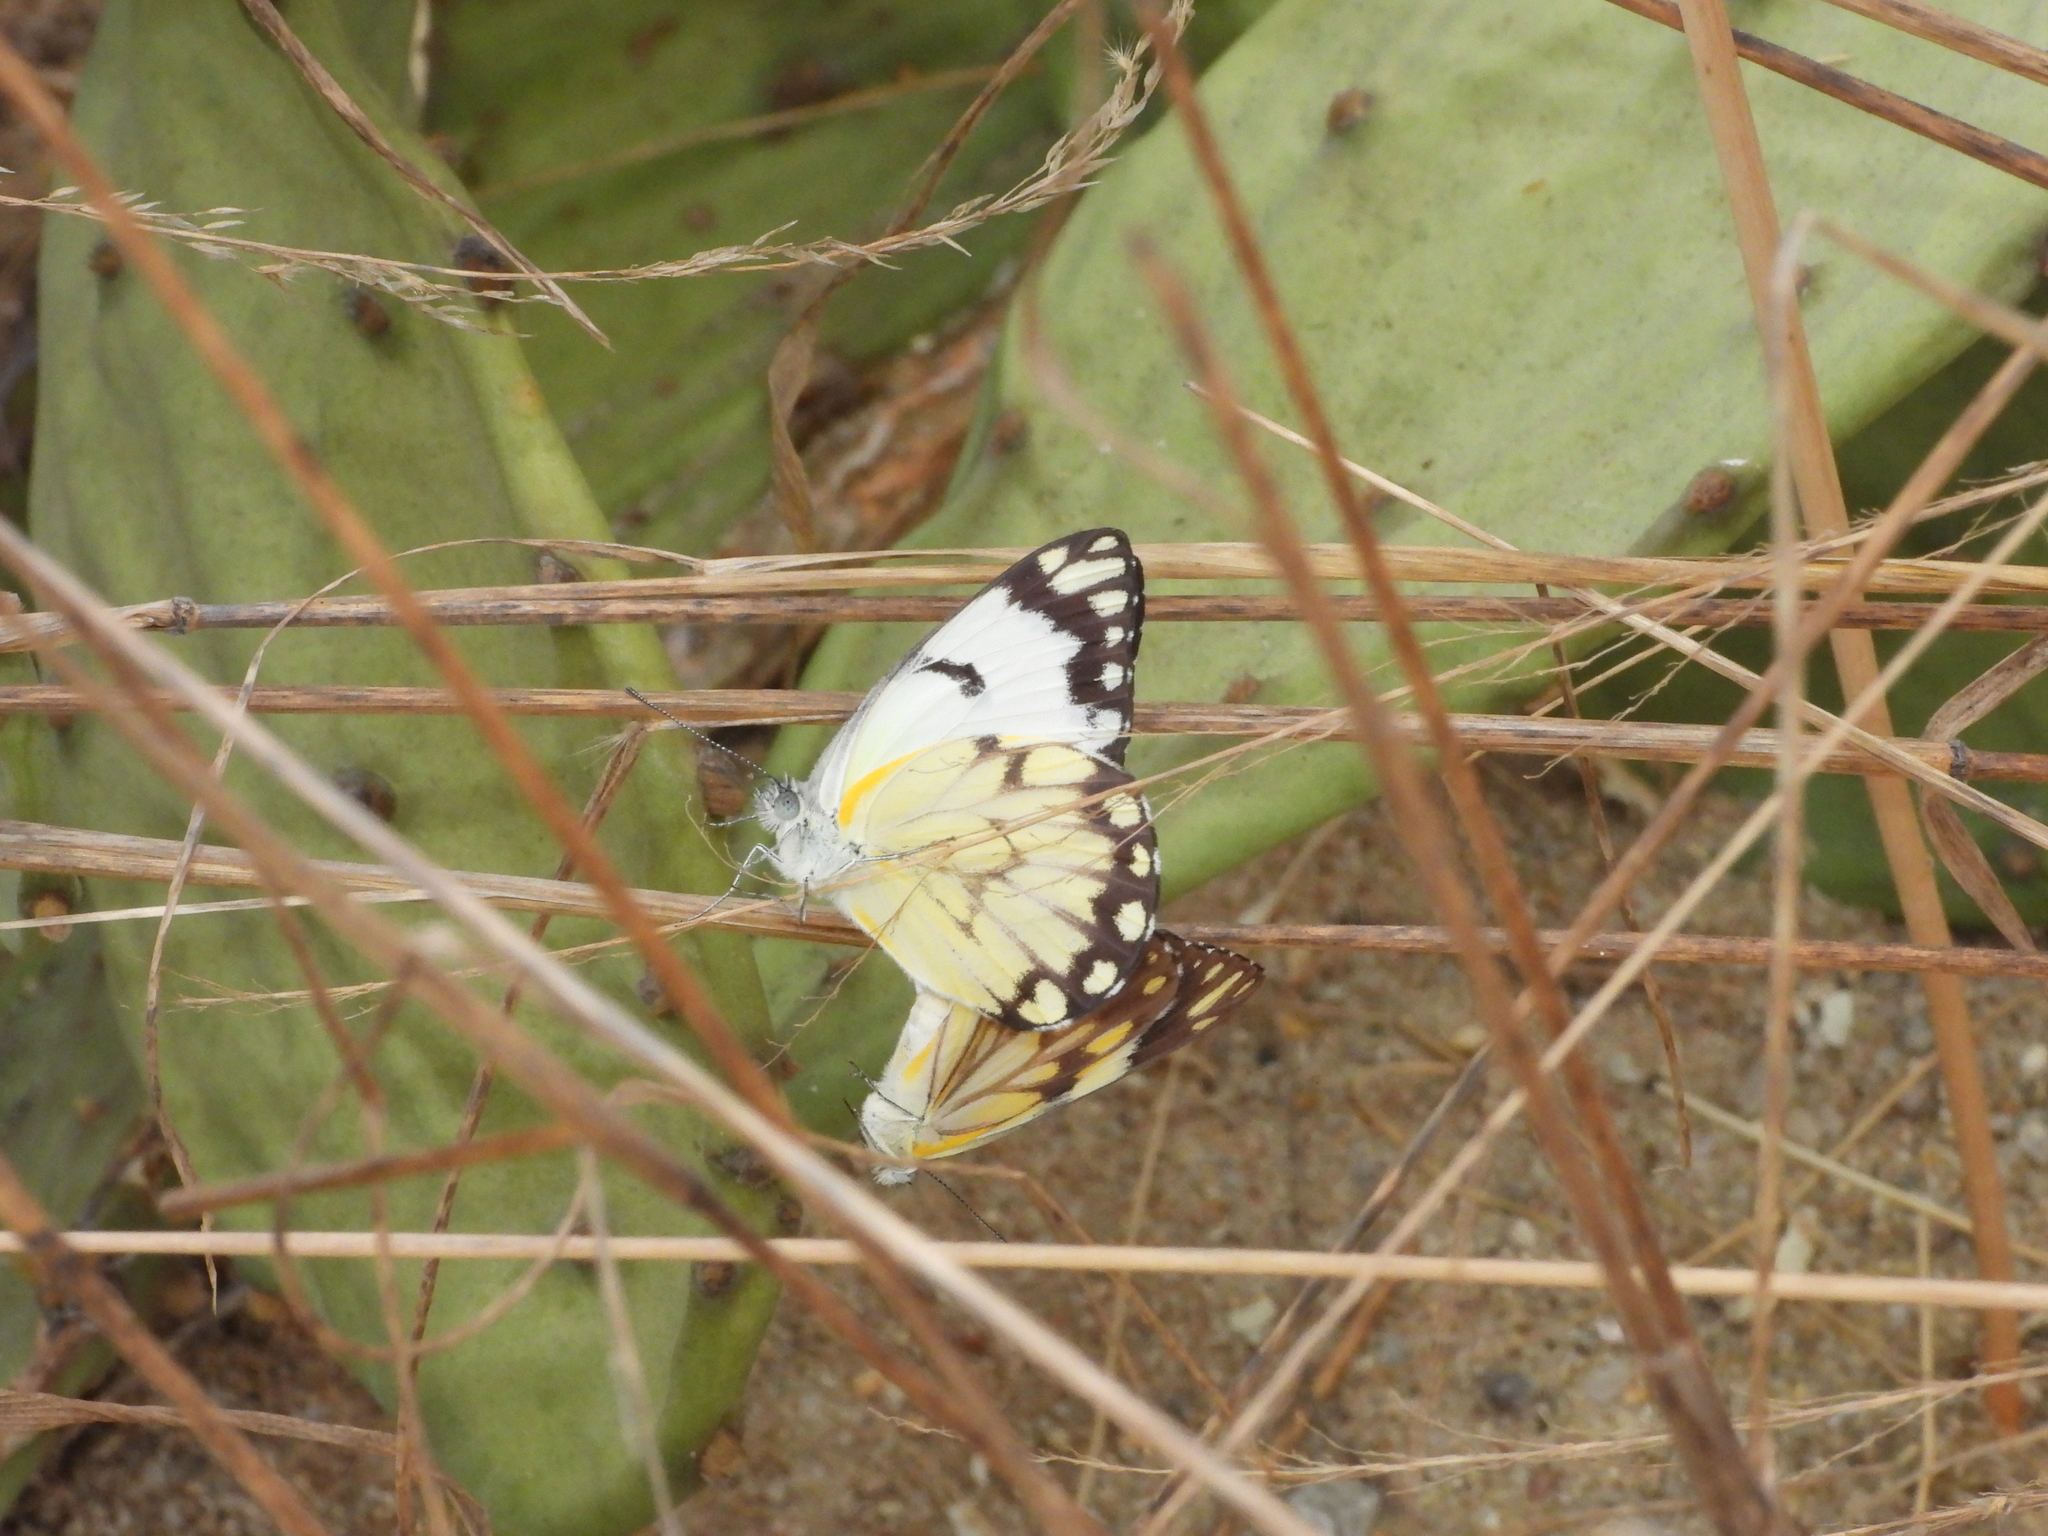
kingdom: Animalia
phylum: Arthropoda
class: Insecta
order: Lepidoptera
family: Pieridae
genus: Belenois
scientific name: Belenois creona
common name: African caper white
